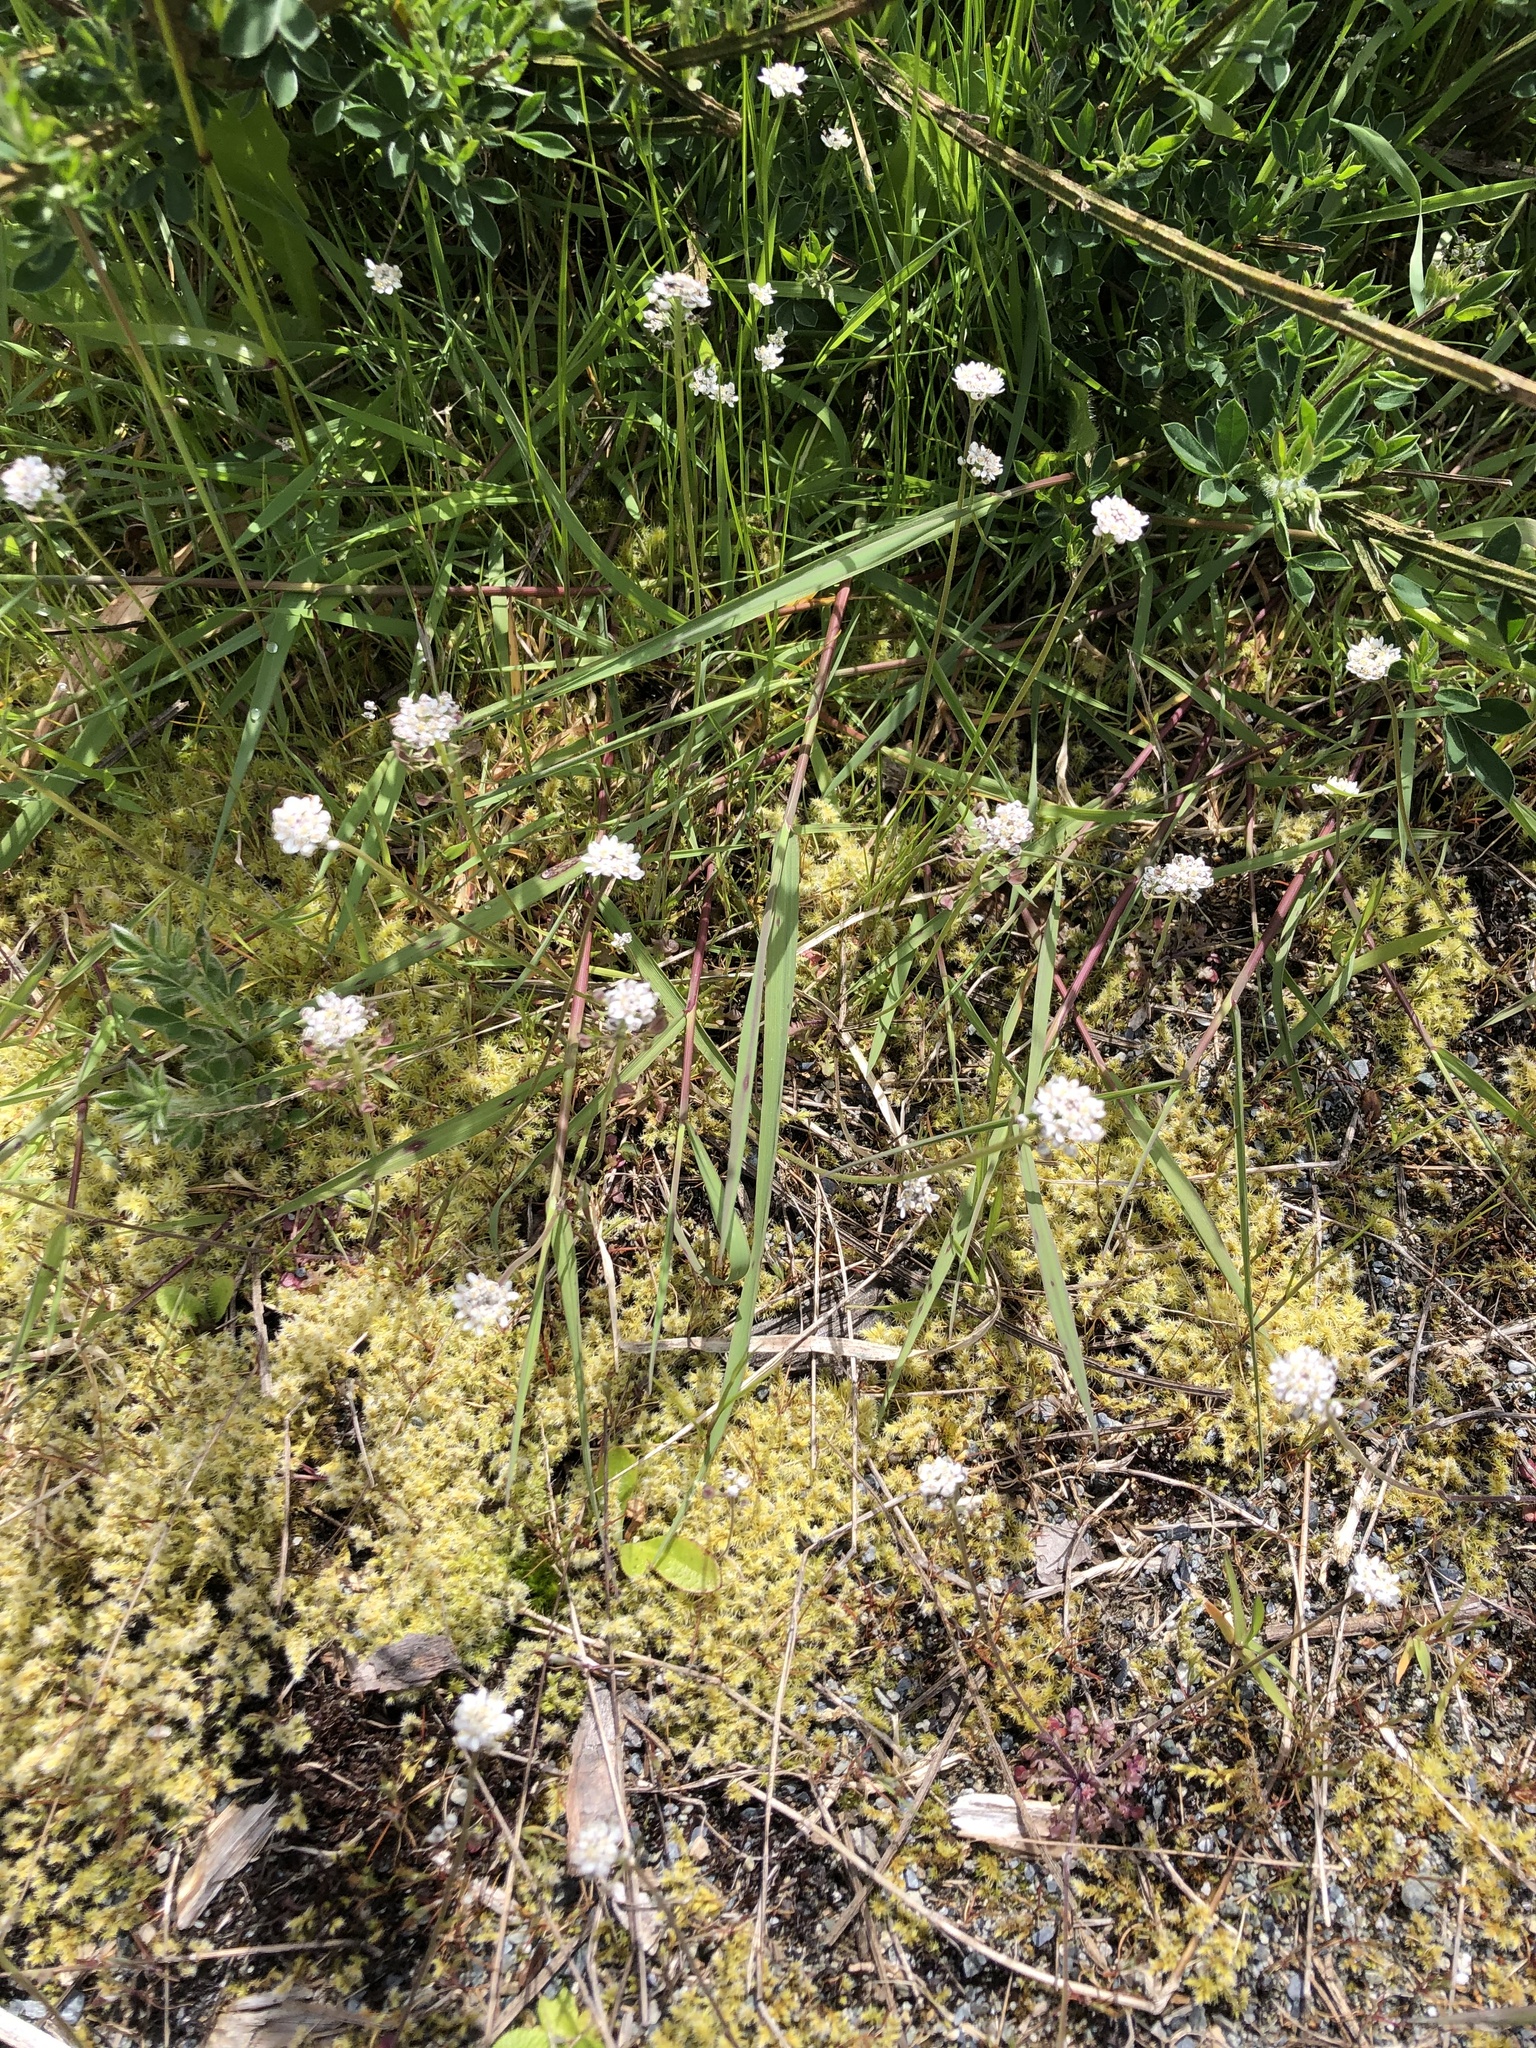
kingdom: Plantae
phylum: Tracheophyta
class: Magnoliopsida
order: Brassicales
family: Brassicaceae
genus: Teesdalia
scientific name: Teesdalia nudicaulis
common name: Shepherd's cress
